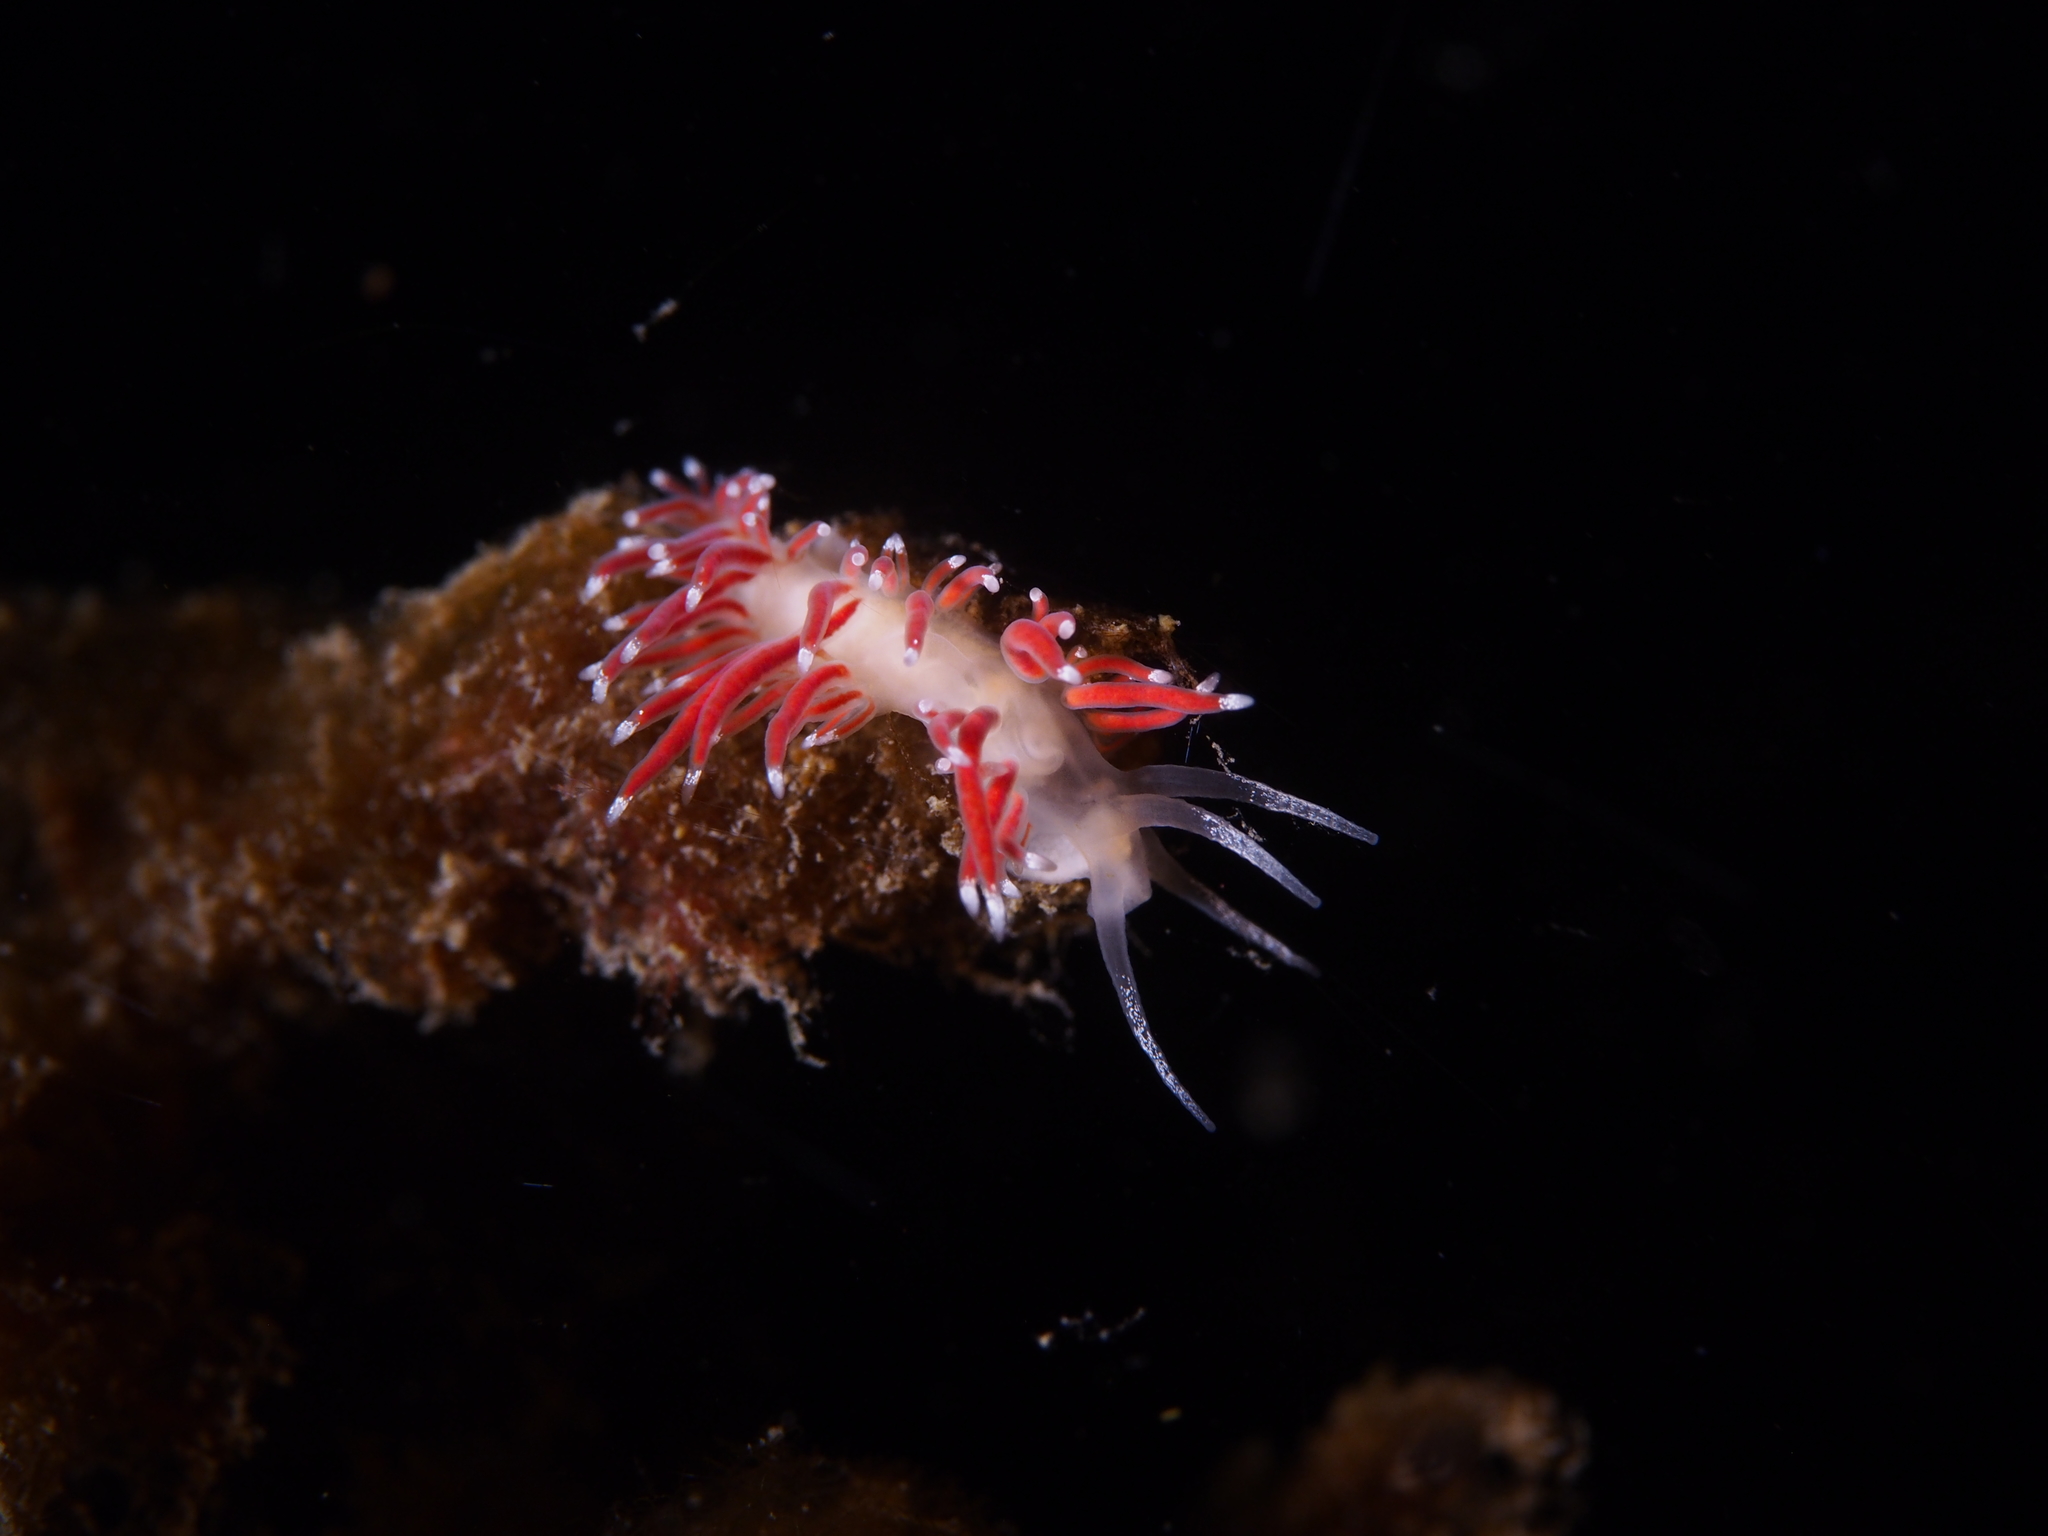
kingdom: Animalia
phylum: Mollusca
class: Gastropoda
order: Nudibranchia
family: Coryphellidae
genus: Coryphella
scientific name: Coryphella gracilis
